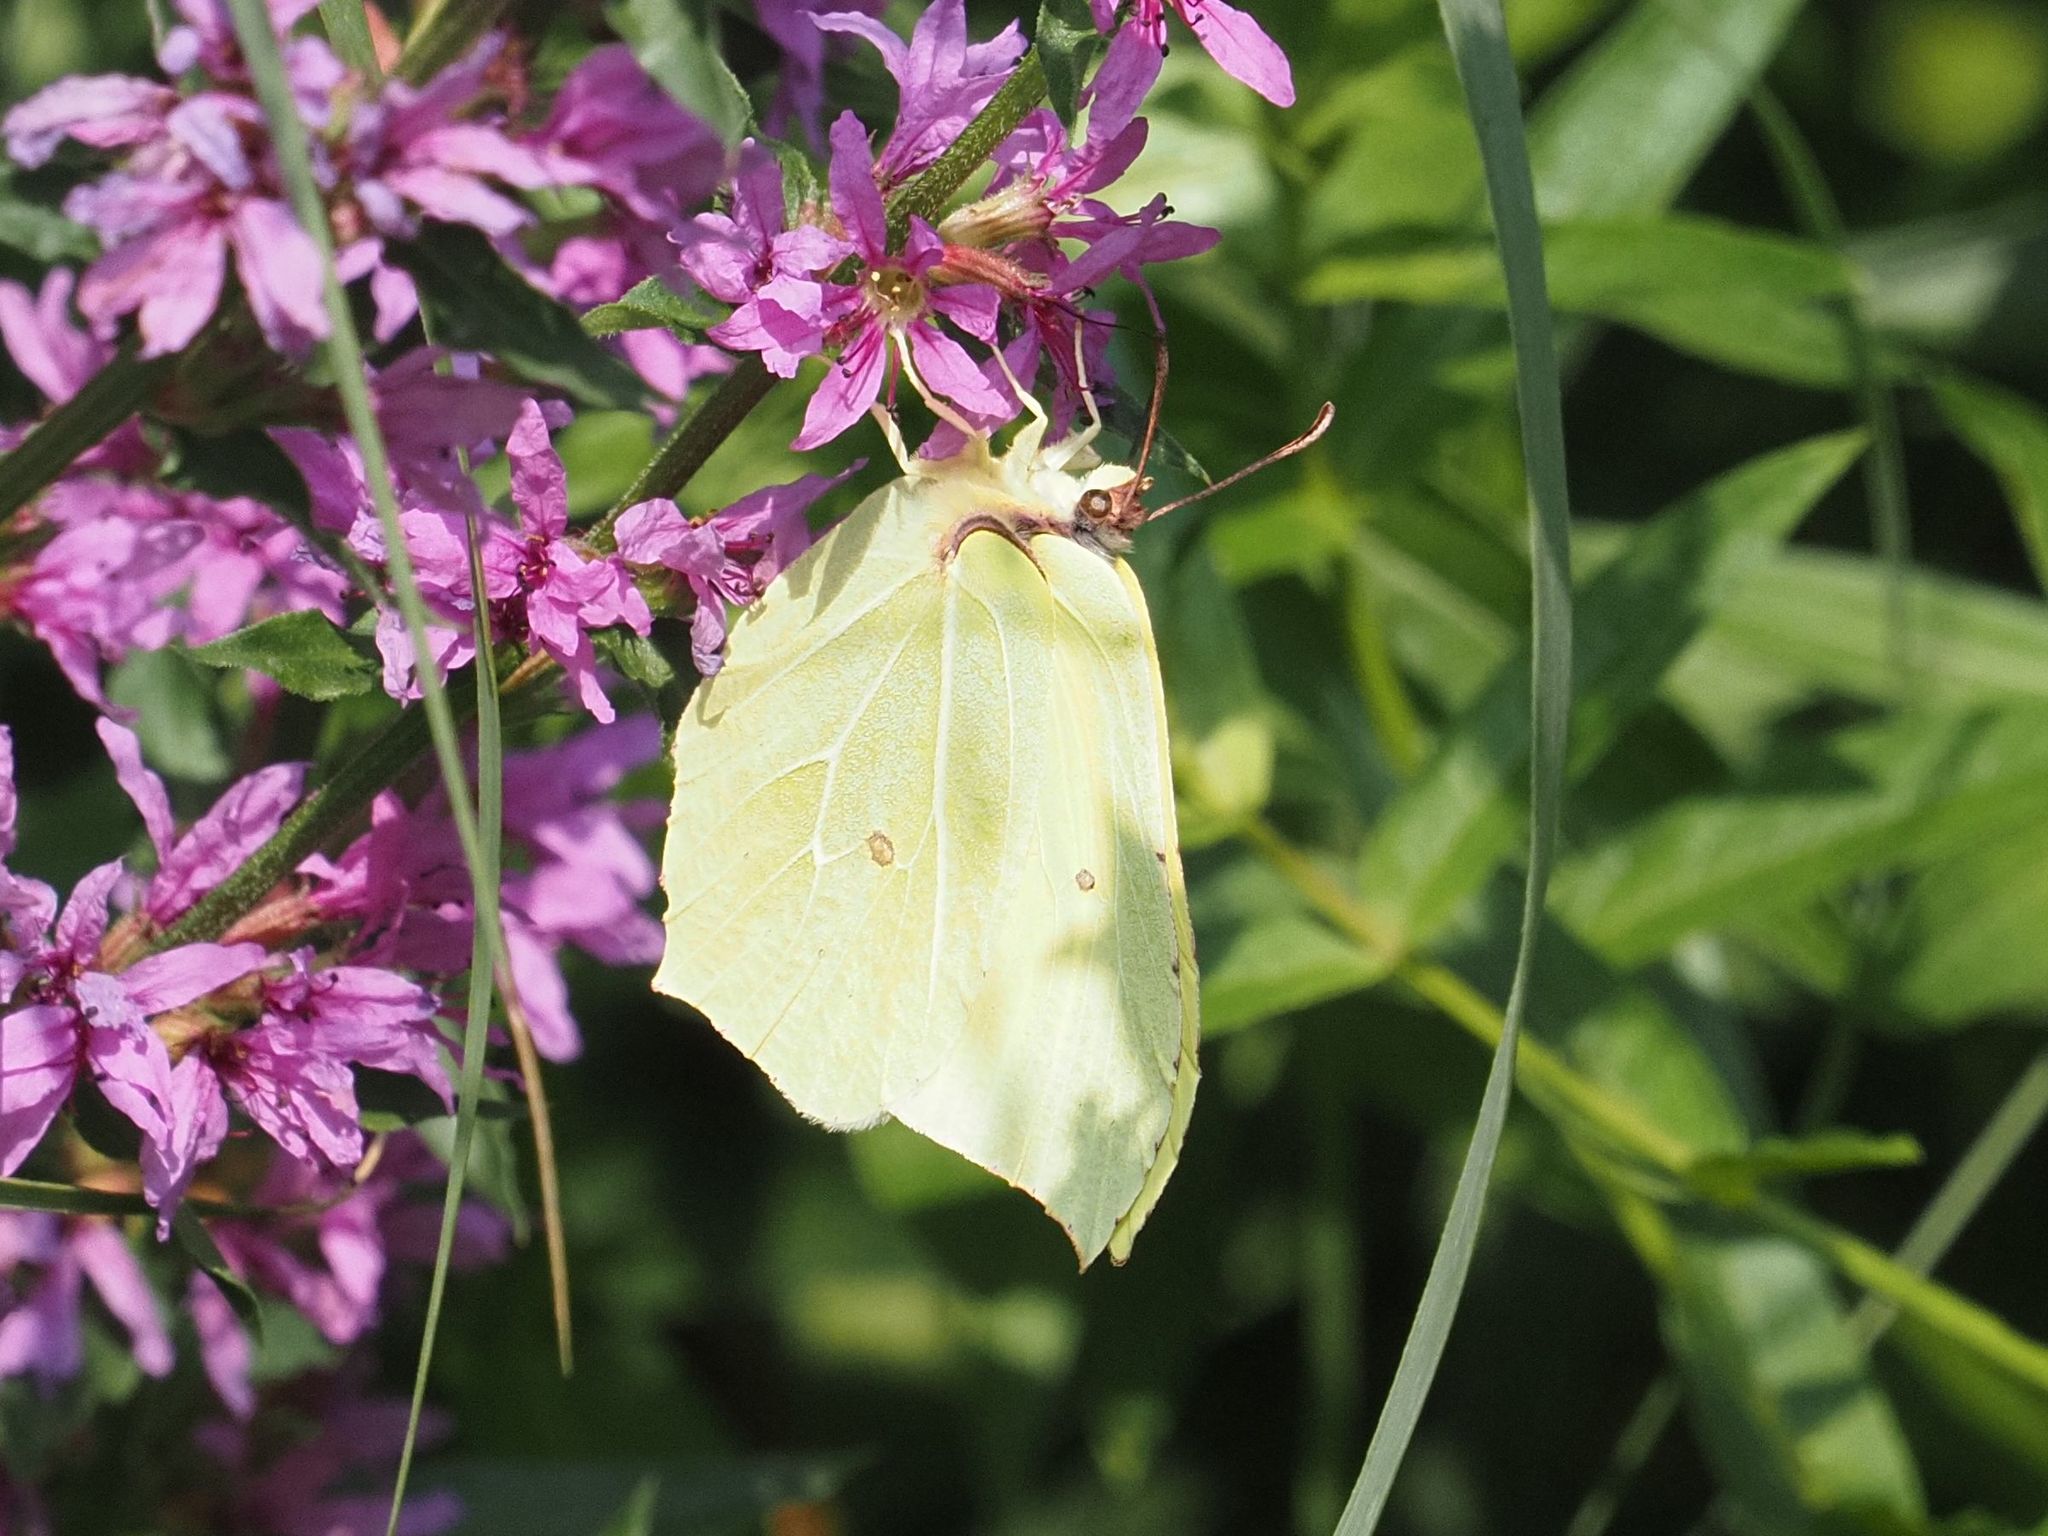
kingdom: Animalia
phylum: Arthropoda
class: Insecta
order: Lepidoptera
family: Pieridae
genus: Gonepteryx
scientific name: Gonepteryx rhamni
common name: Brimstone
